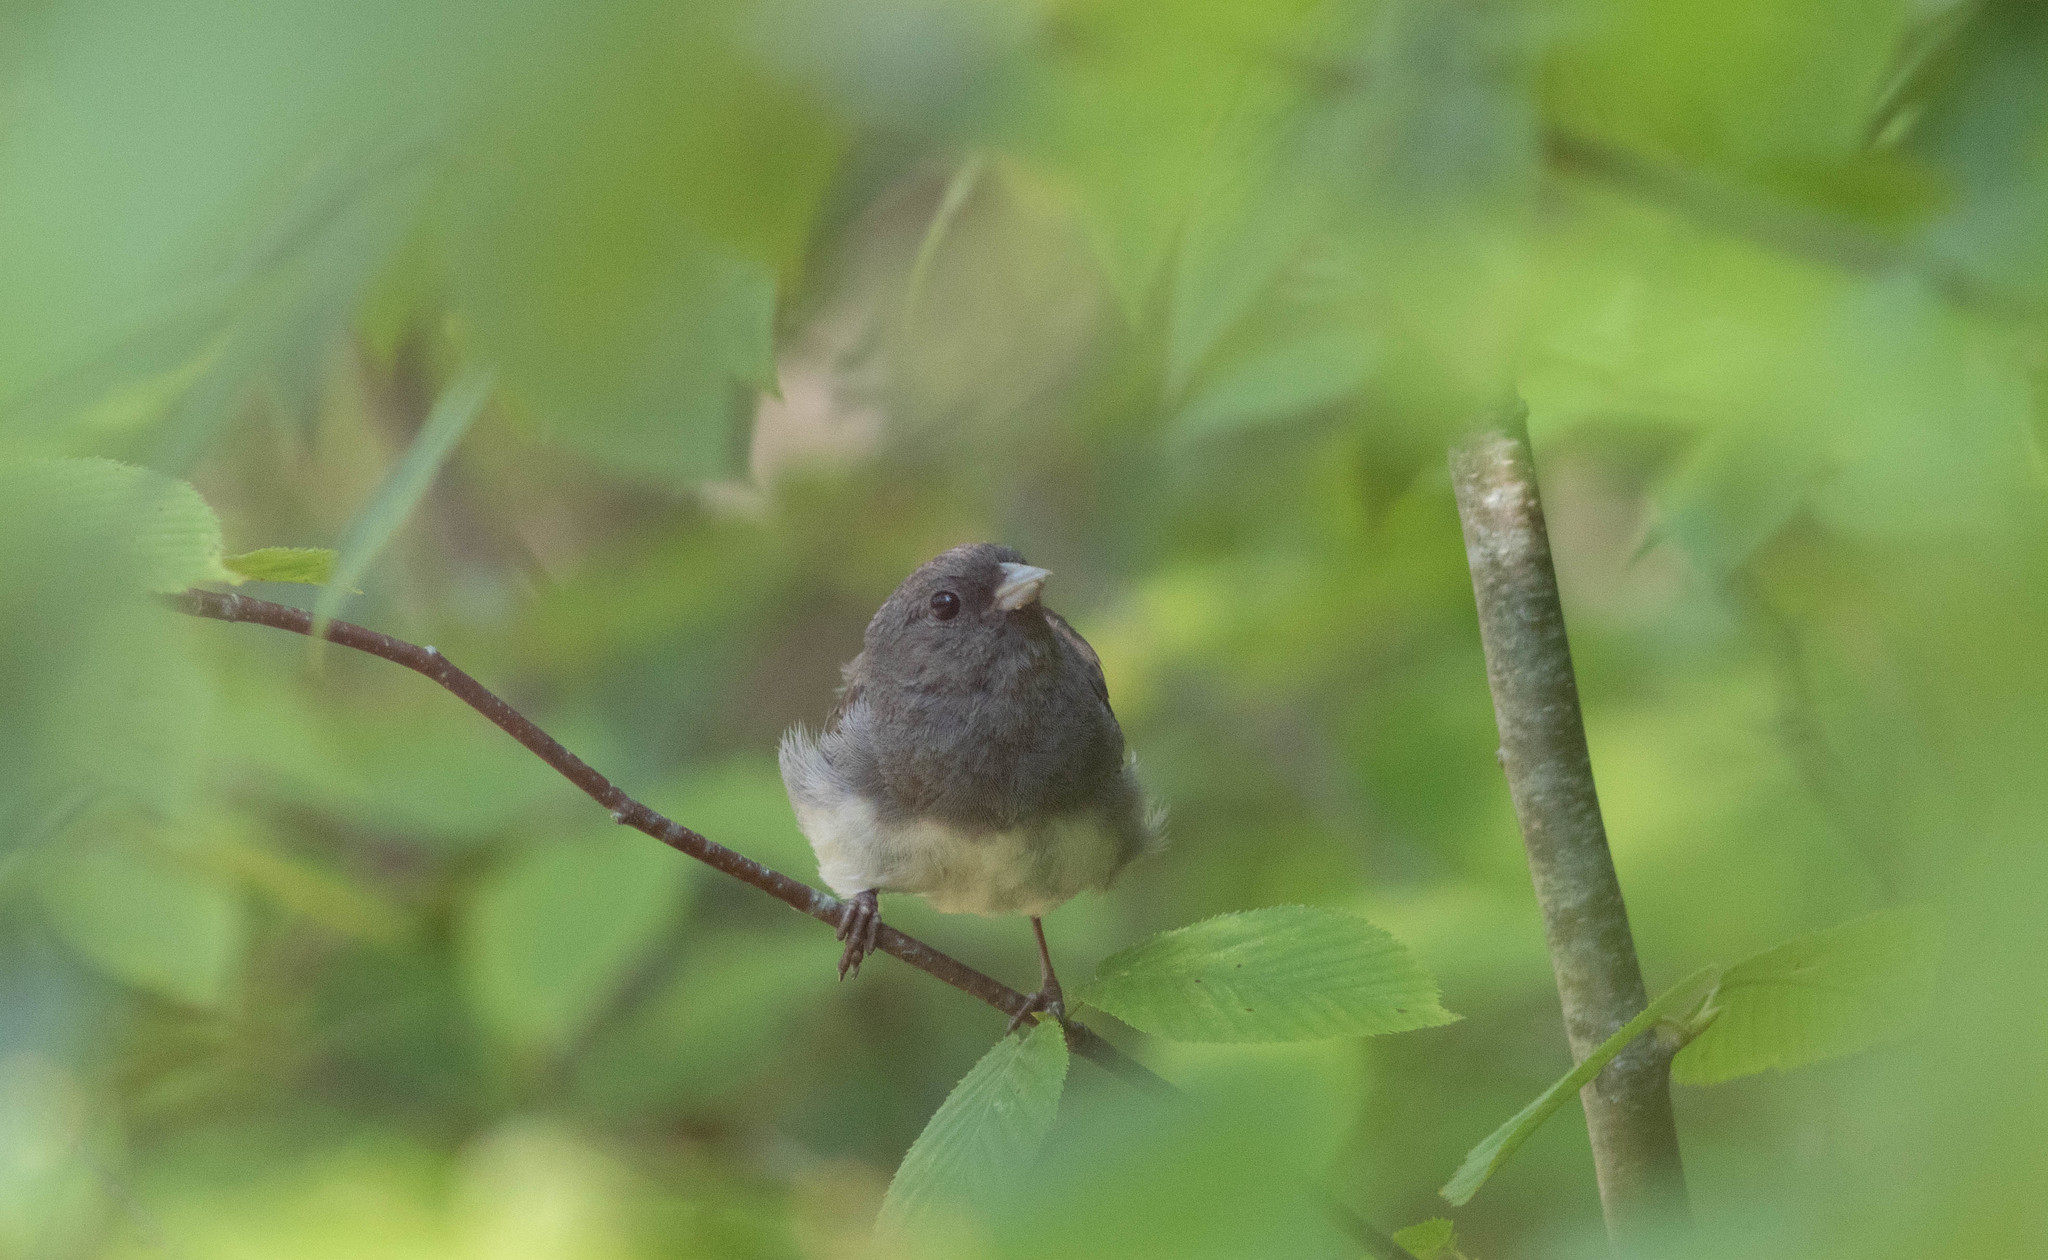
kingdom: Animalia
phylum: Chordata
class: Aves
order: Passeriformes
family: Passerellidae
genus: Junco
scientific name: Junco hyemalis
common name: Dark-eyed junco
